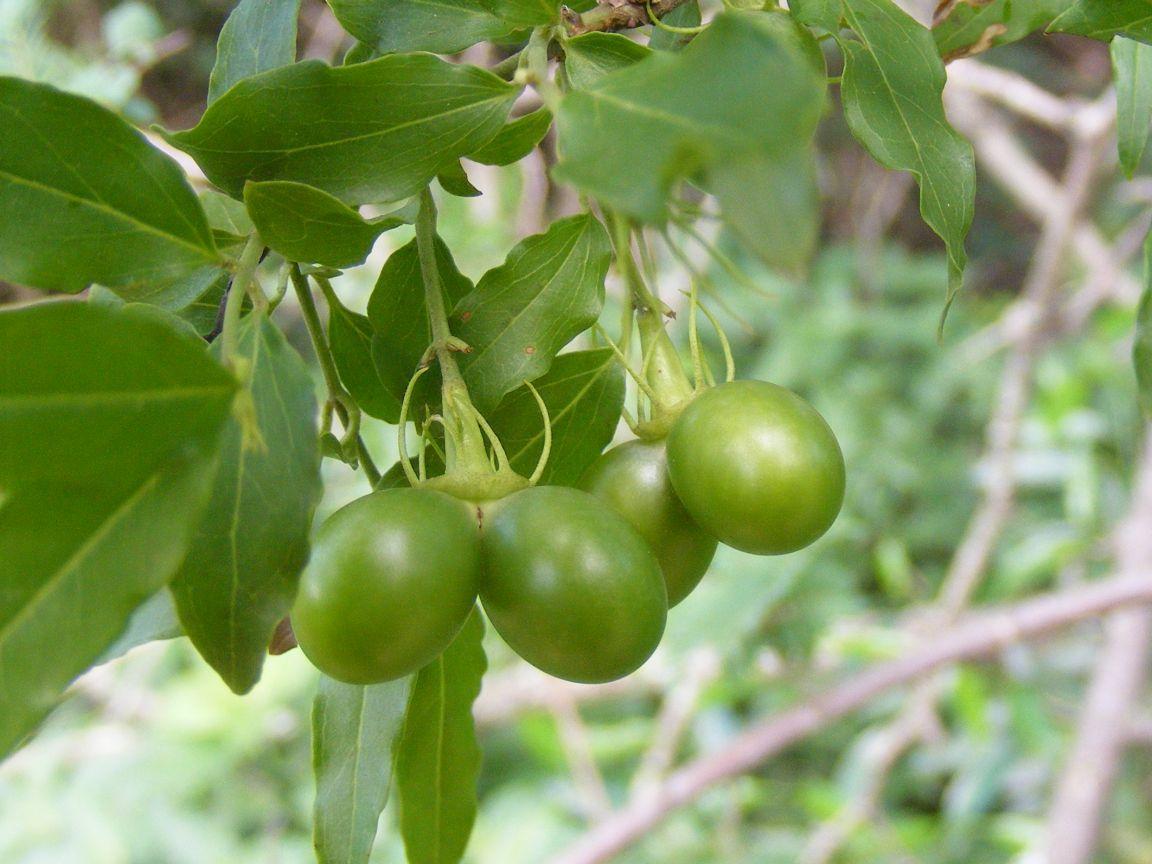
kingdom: Plantae
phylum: Tracheophyta
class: Magnoliopsida
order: Lamiales
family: Oleaceae
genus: Jasminum
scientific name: Jasminum multipartitum
